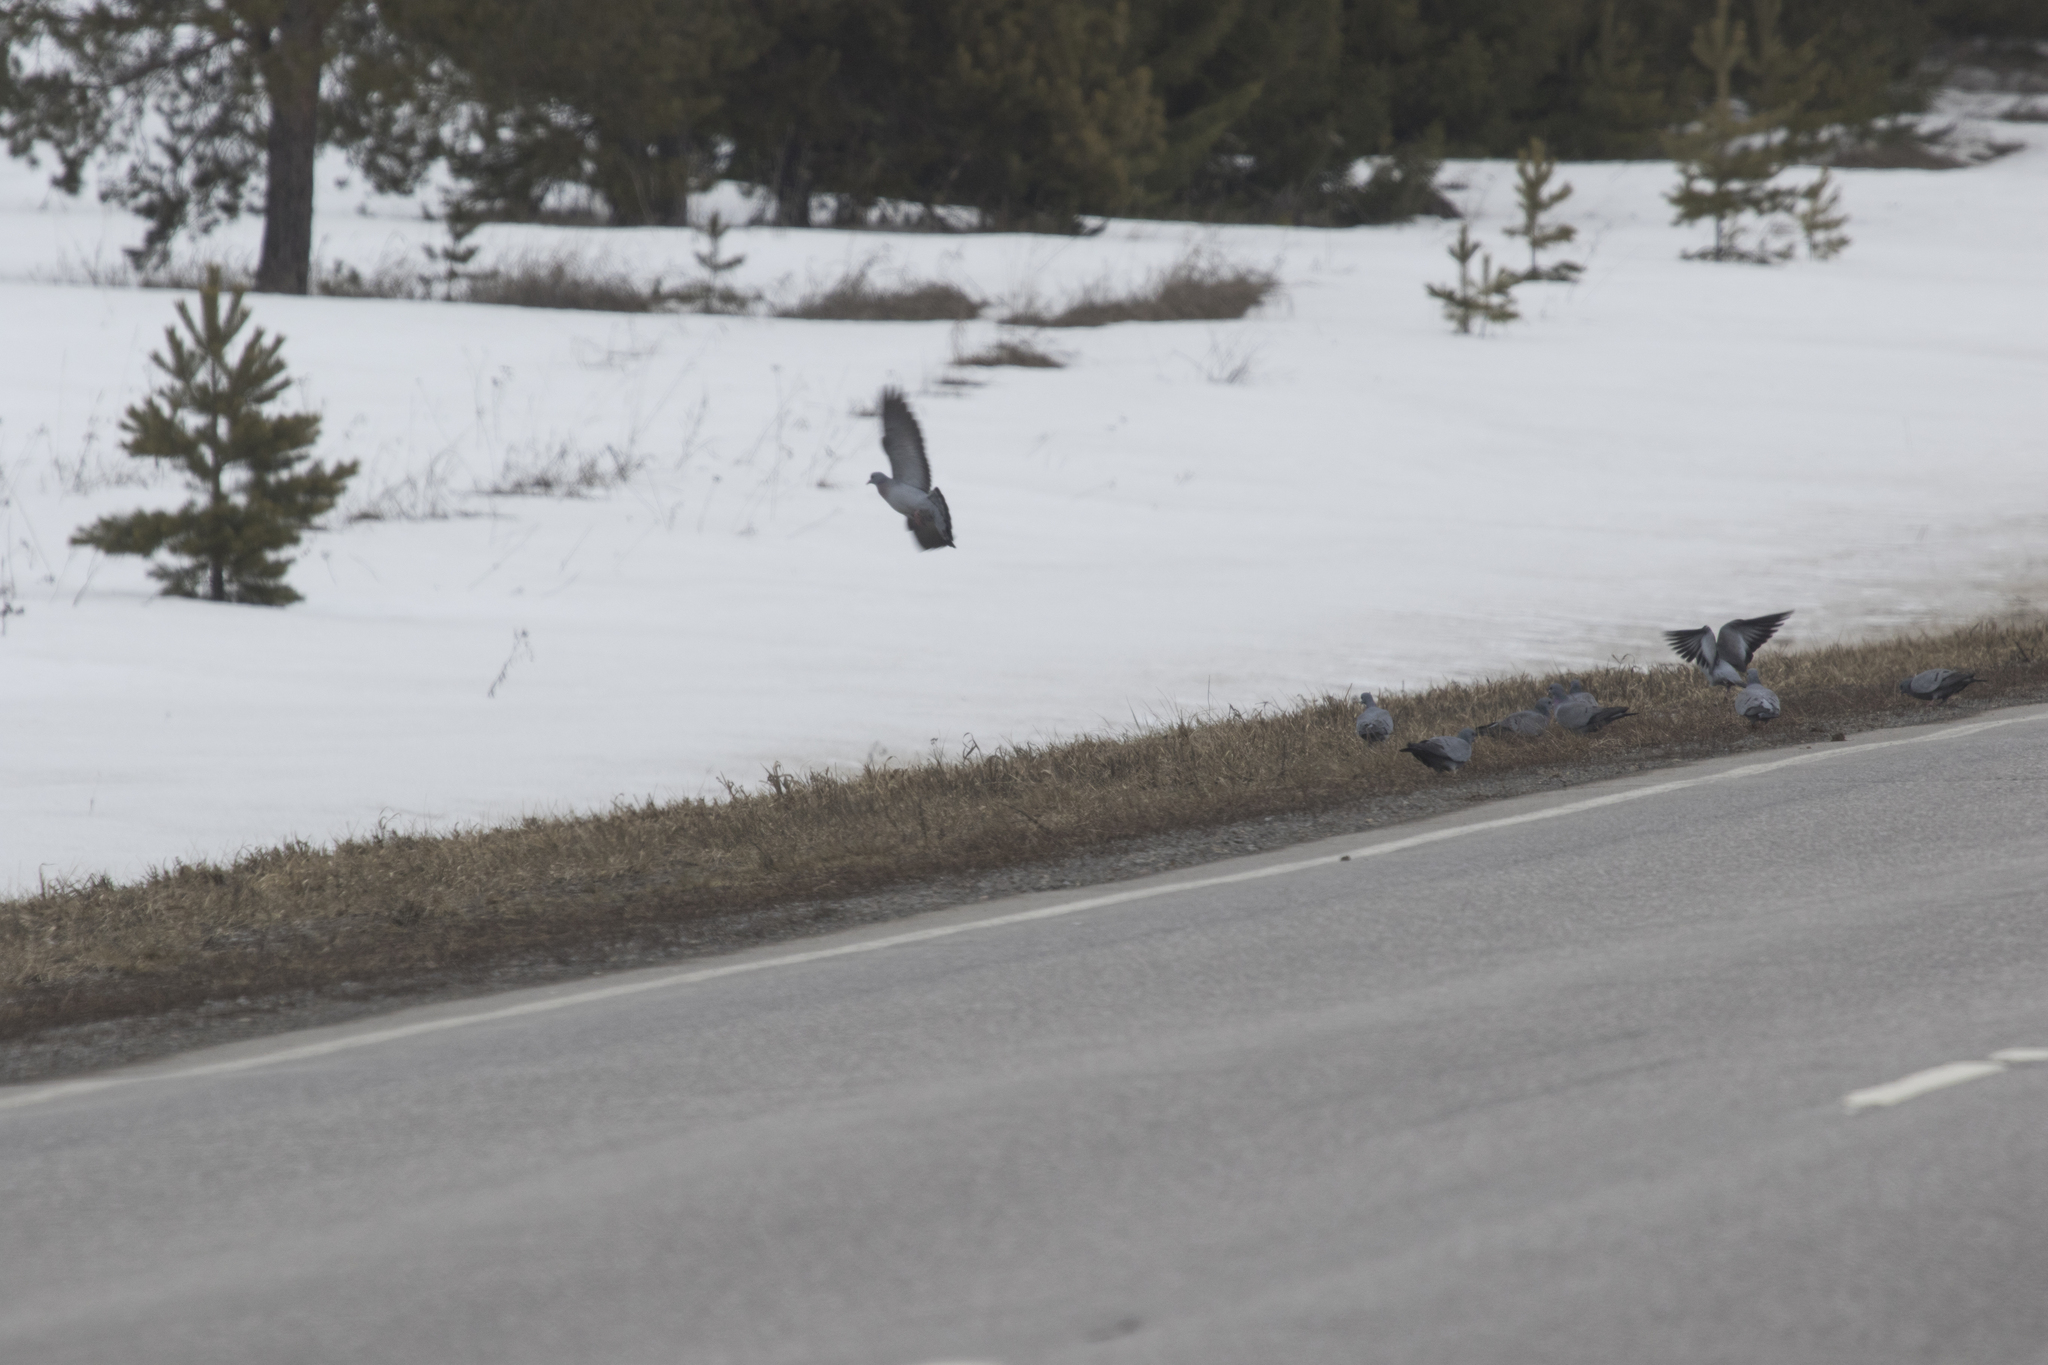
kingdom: Animalia
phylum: Chordata
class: Aves
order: Columbiformes
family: Columbidae
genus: Columba
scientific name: Columba oenas
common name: Stock dove
